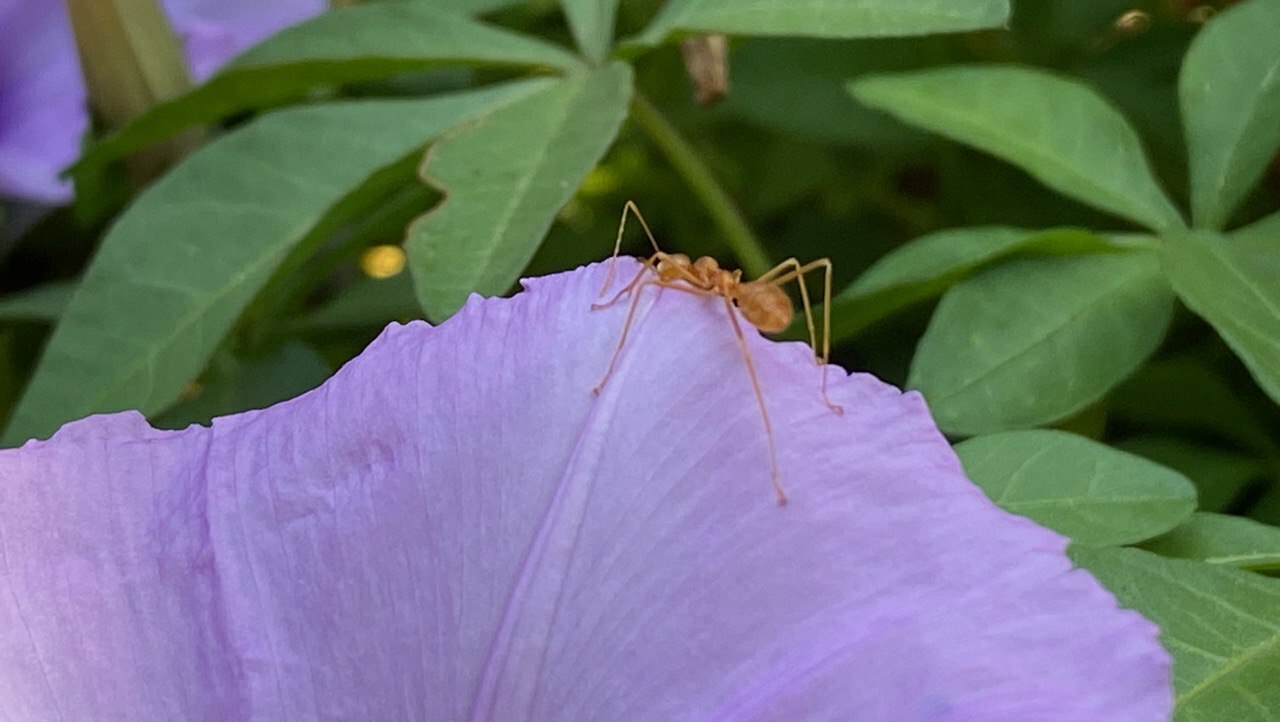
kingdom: Animalia
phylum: Arthropoda
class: Insecta
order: Hymenoptera
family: Formicidae
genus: Oecophylla
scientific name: Oecophylla smaragdina
